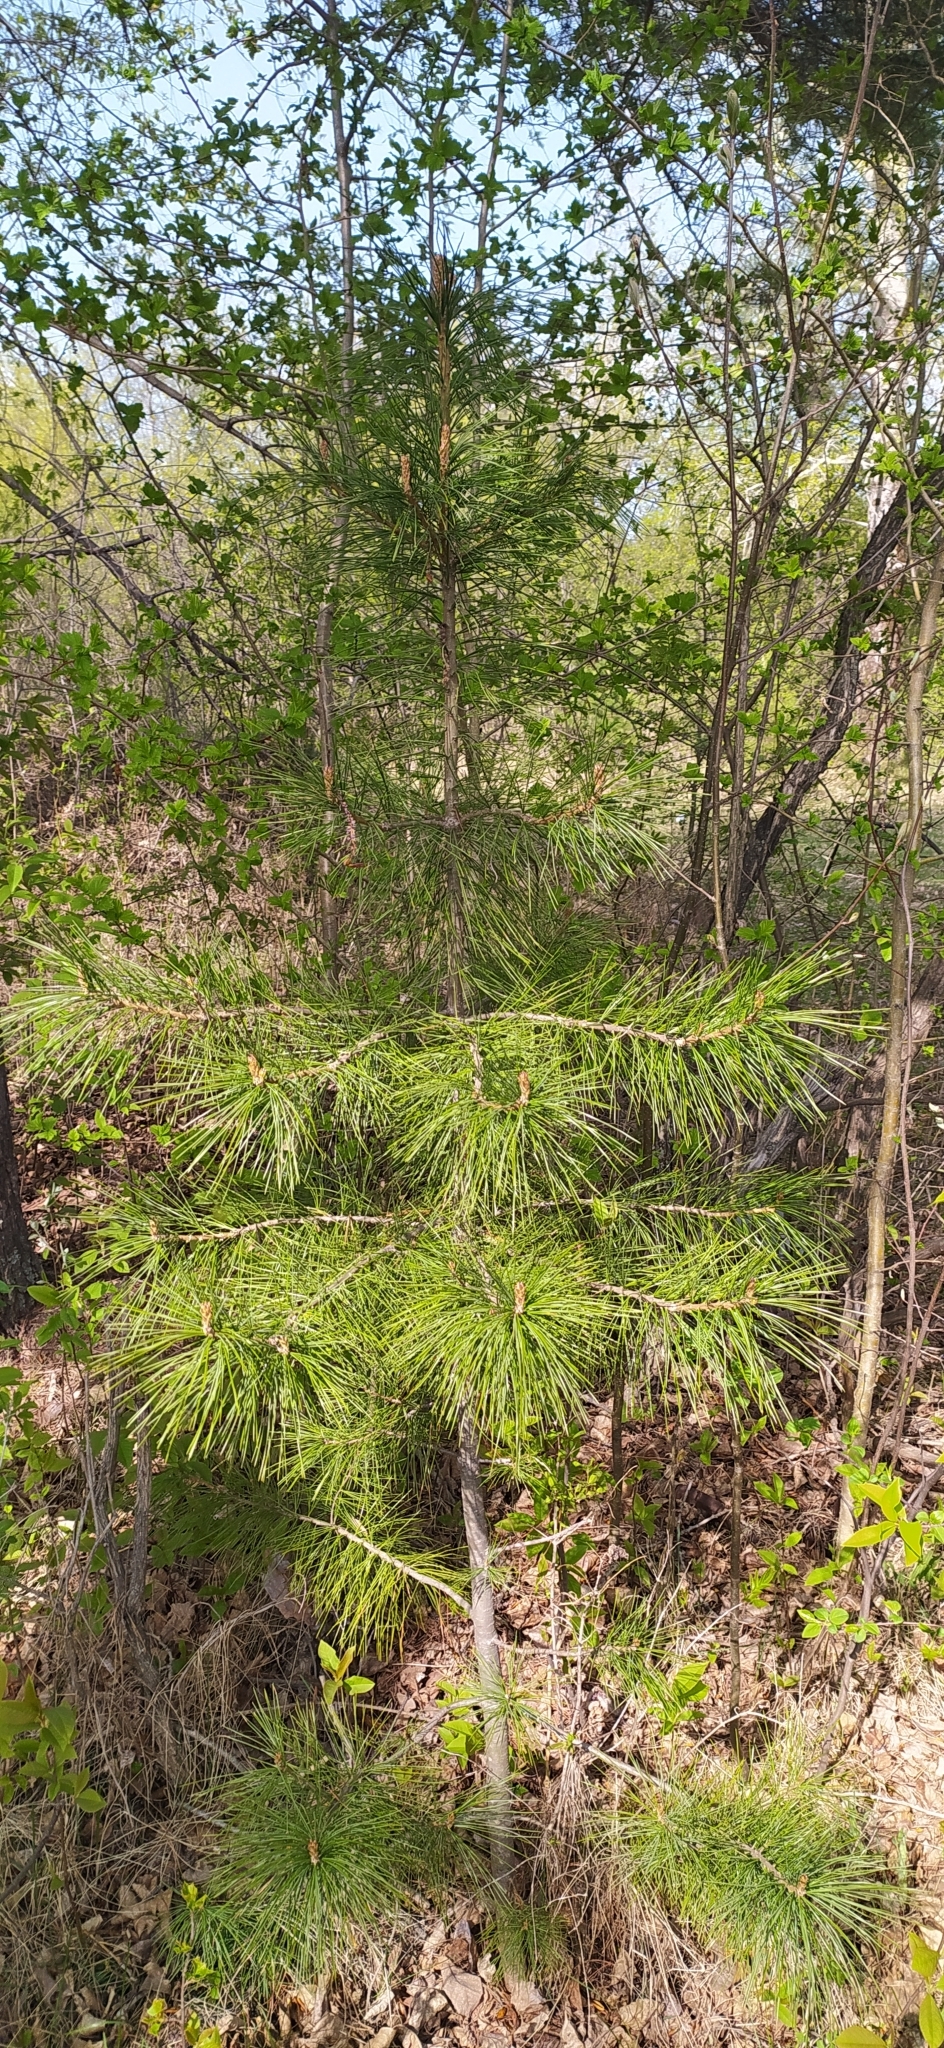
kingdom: Plantae
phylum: Tracheophyta
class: Pinopsida
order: Pinales
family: Pinaceae
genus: Pinus
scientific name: Pinus sibirica
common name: Siberian pine
